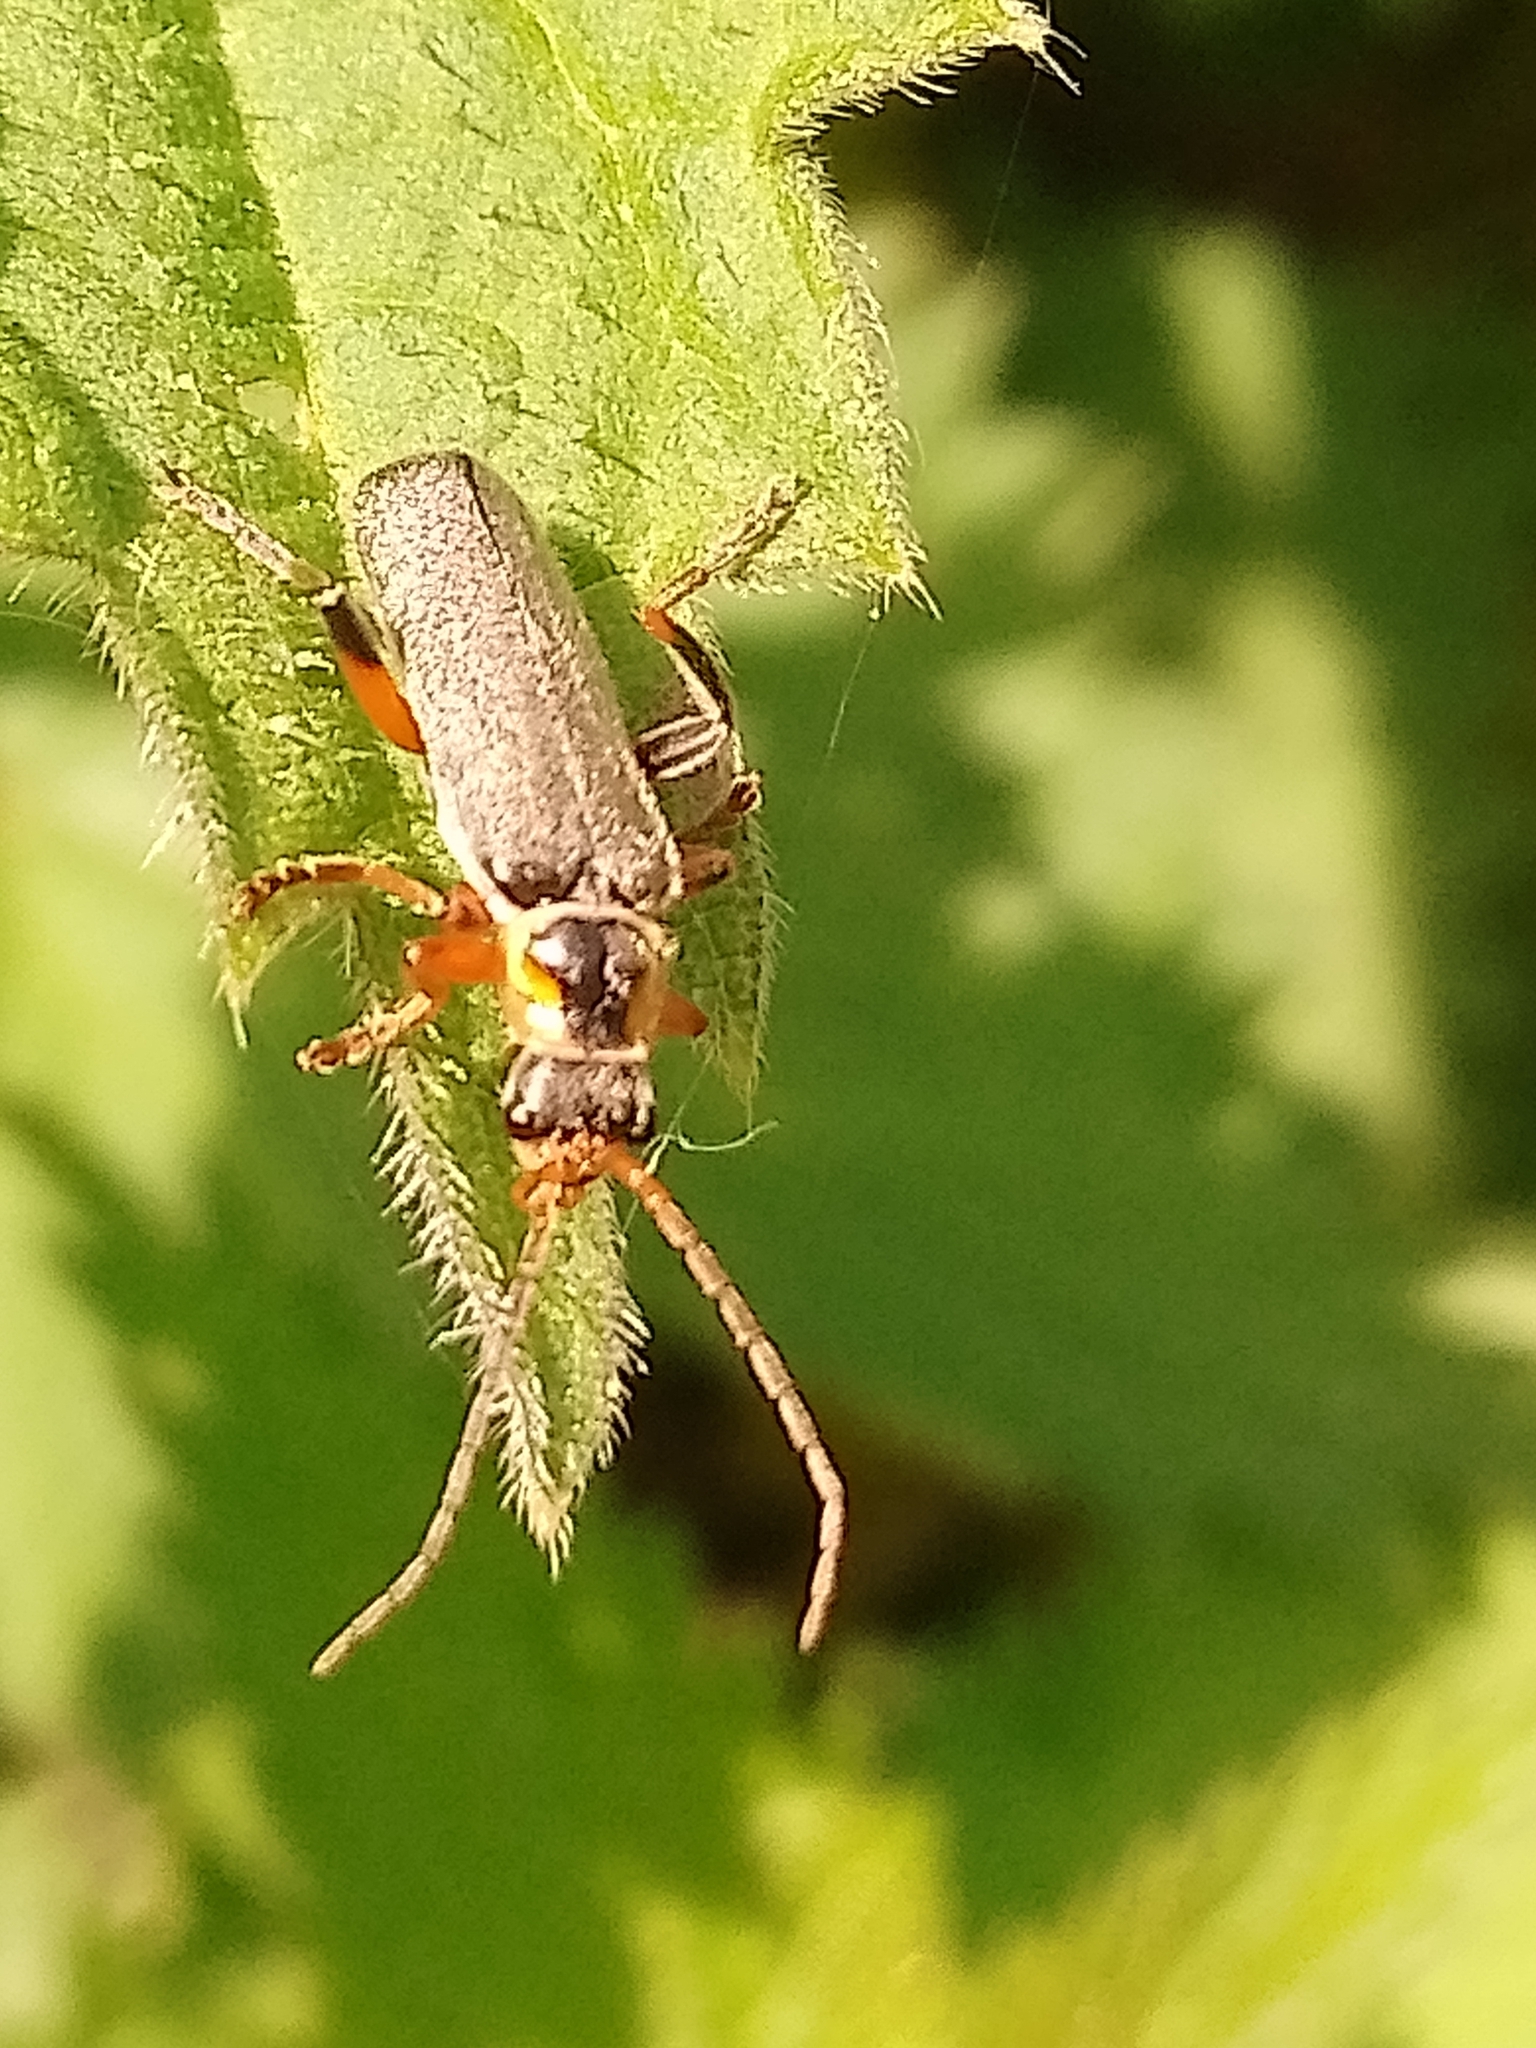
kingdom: Animalia
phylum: Arthropoda
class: Insecta
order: Coleoptera
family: Cantharidae
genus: Cantharis
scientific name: Cantharis nigricans
